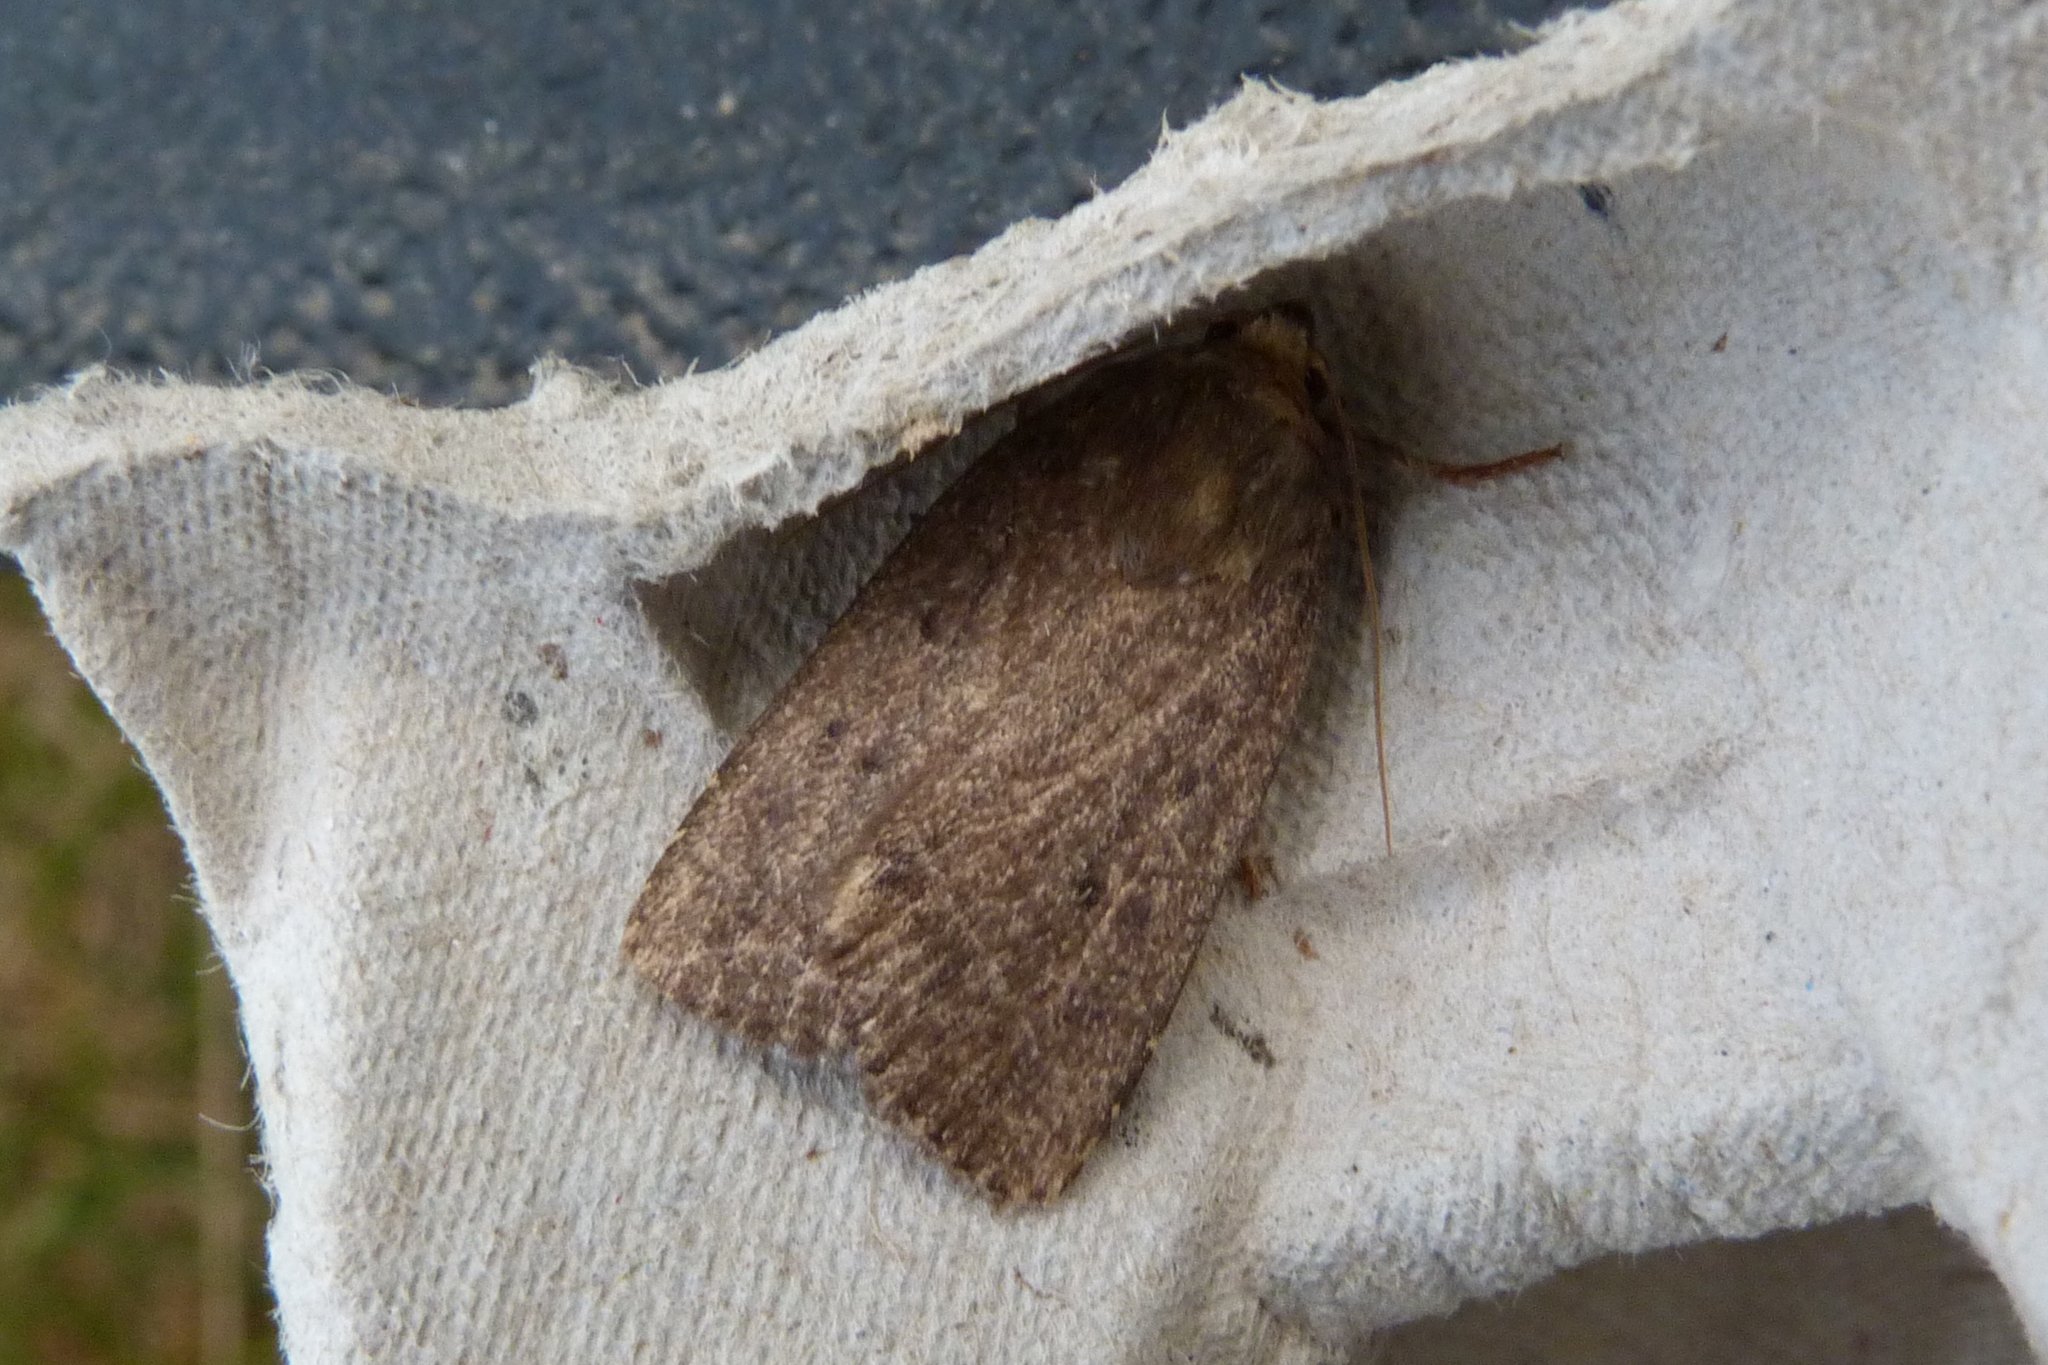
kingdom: Animalia
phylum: Arthropoda
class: Insecta
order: Lepidoptera
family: Noctuidae
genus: Amphipyra
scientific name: Amphipyra tragopoginis
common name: Mouse moth
